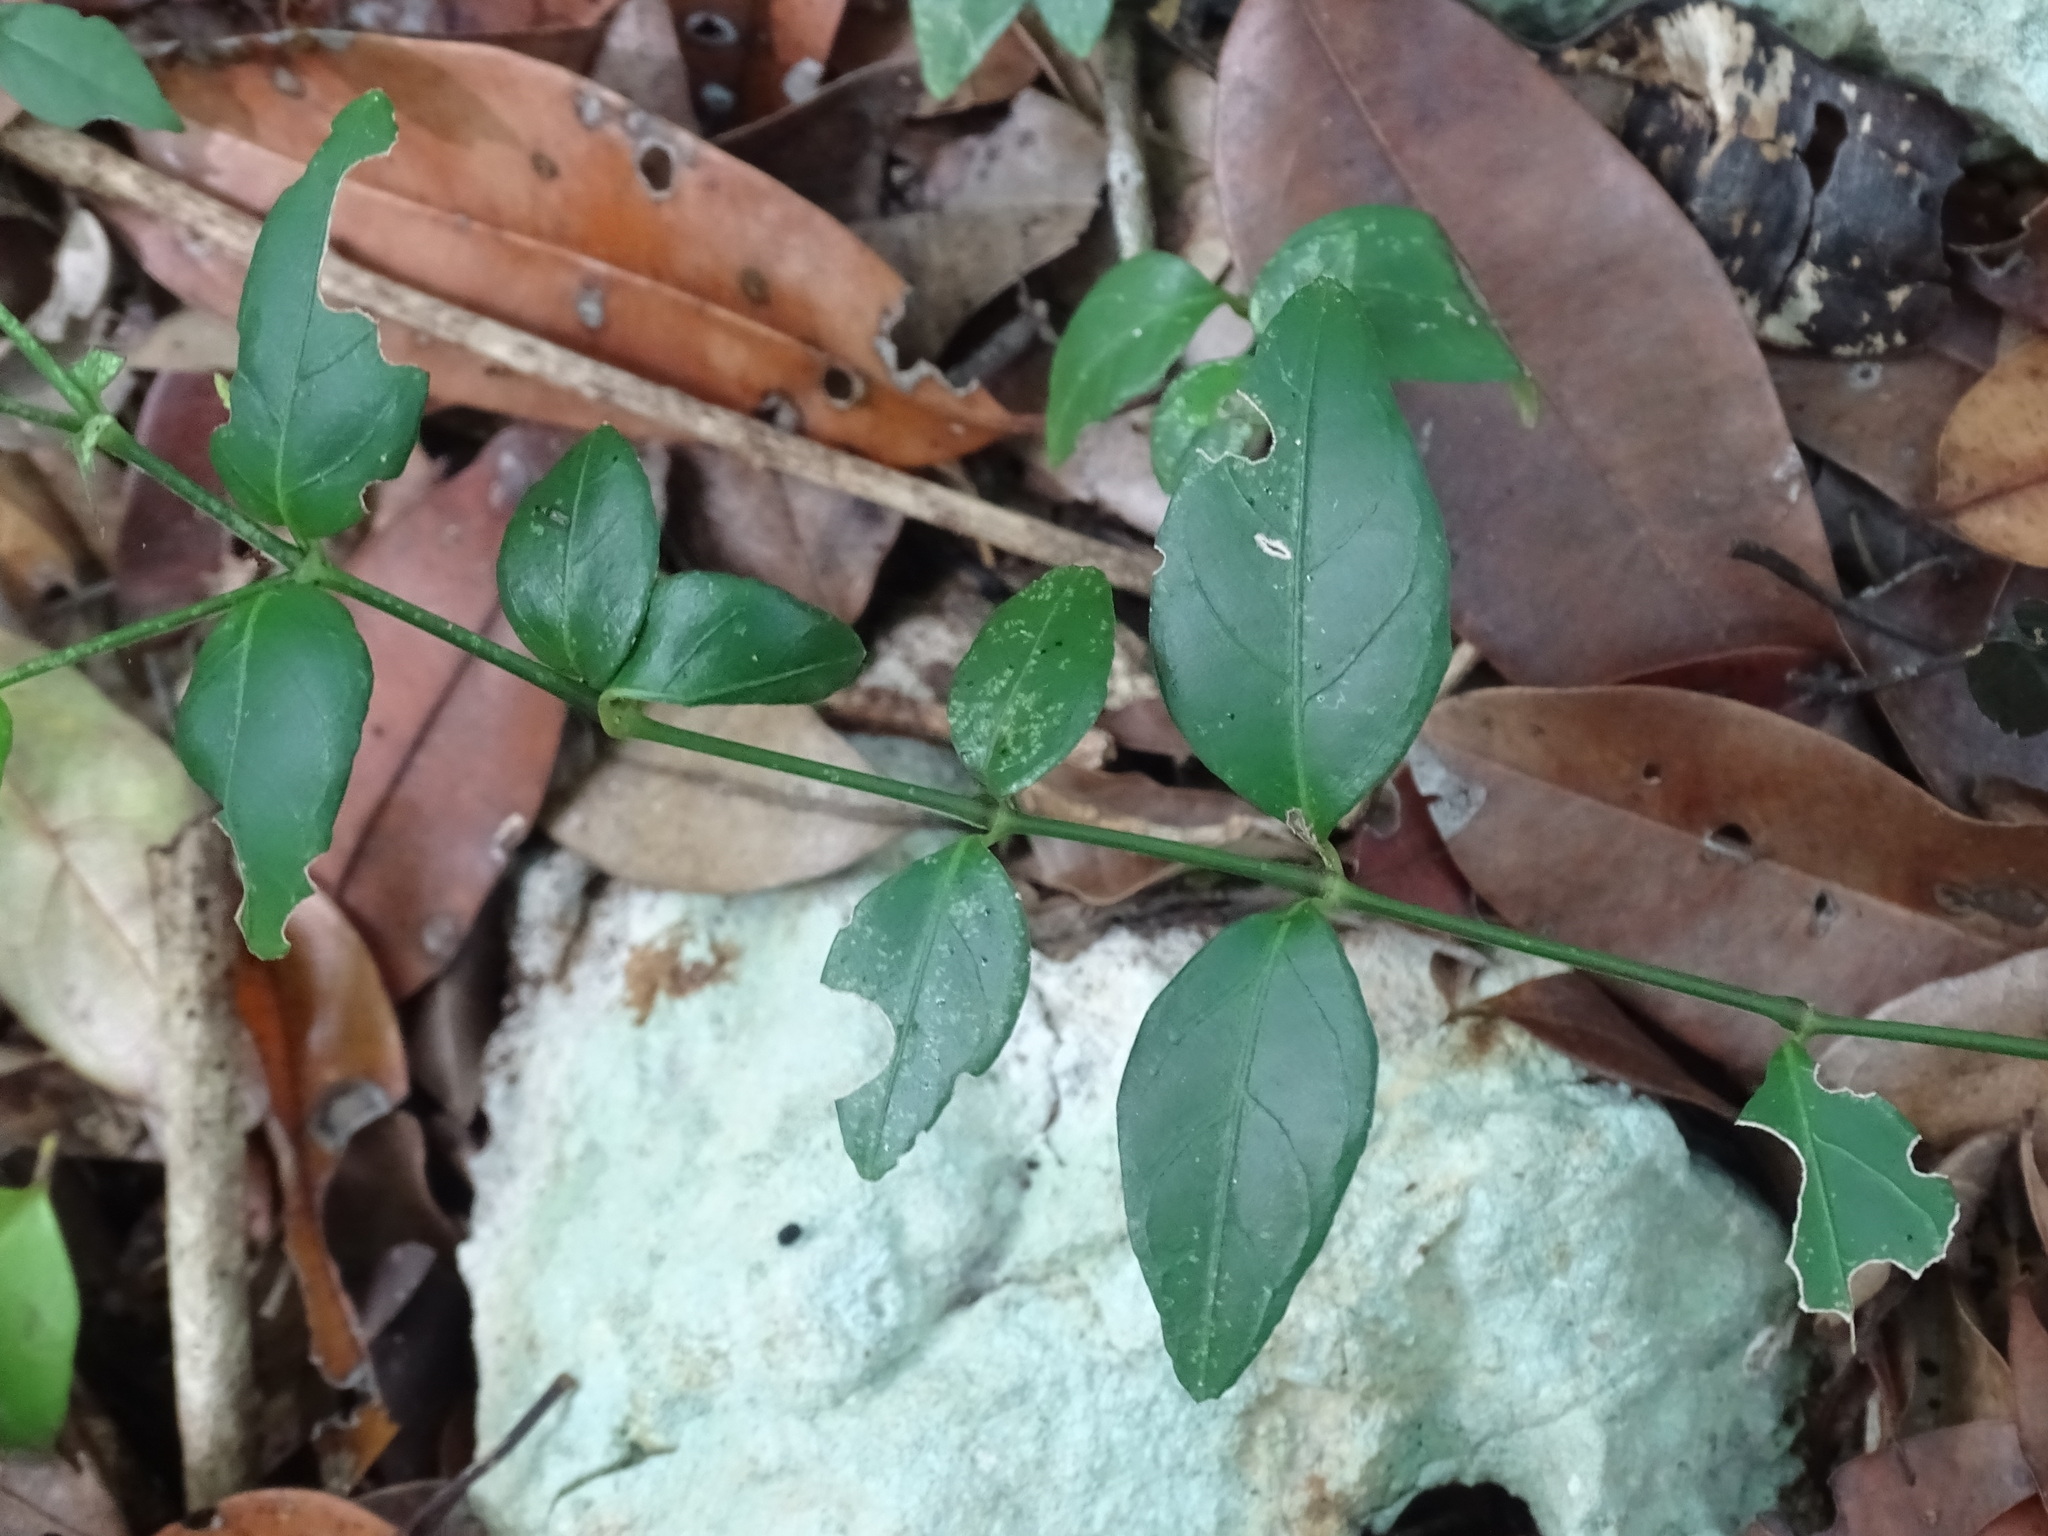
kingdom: Plantae
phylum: Tracheophyta
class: Magnoliopsida
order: Lamiales
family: Acanthaceae
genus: Justicia
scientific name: Justicia cobensis
